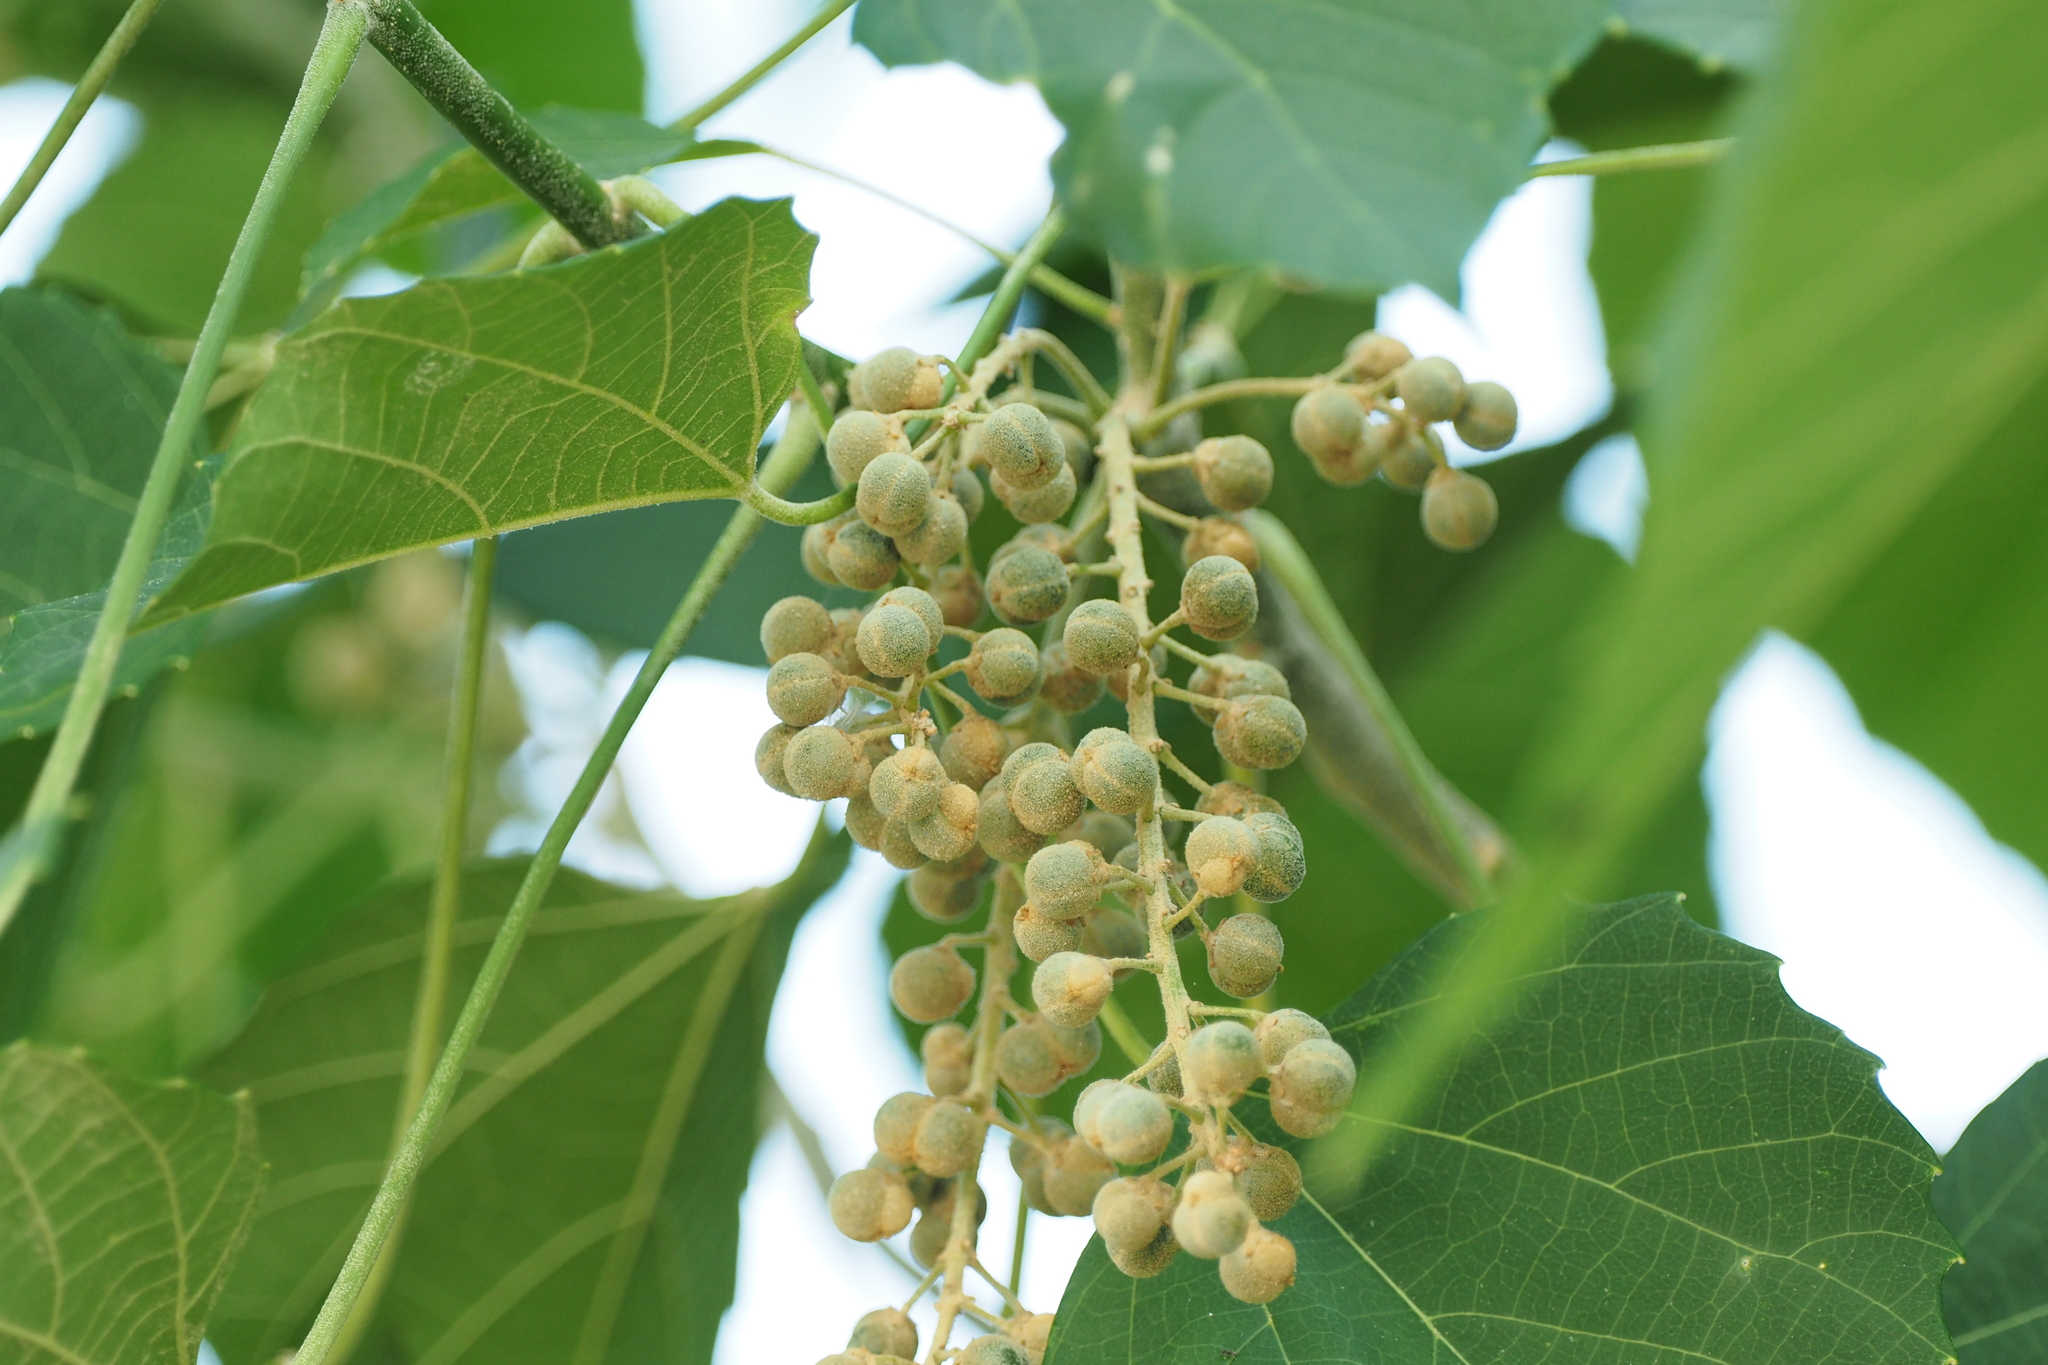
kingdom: Plantae
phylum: Tracheophyta
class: Magnoliopsida
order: Malpighiales
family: Euphorbiaceae
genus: Melanolepis
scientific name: Melanolepis multiglandulosa
